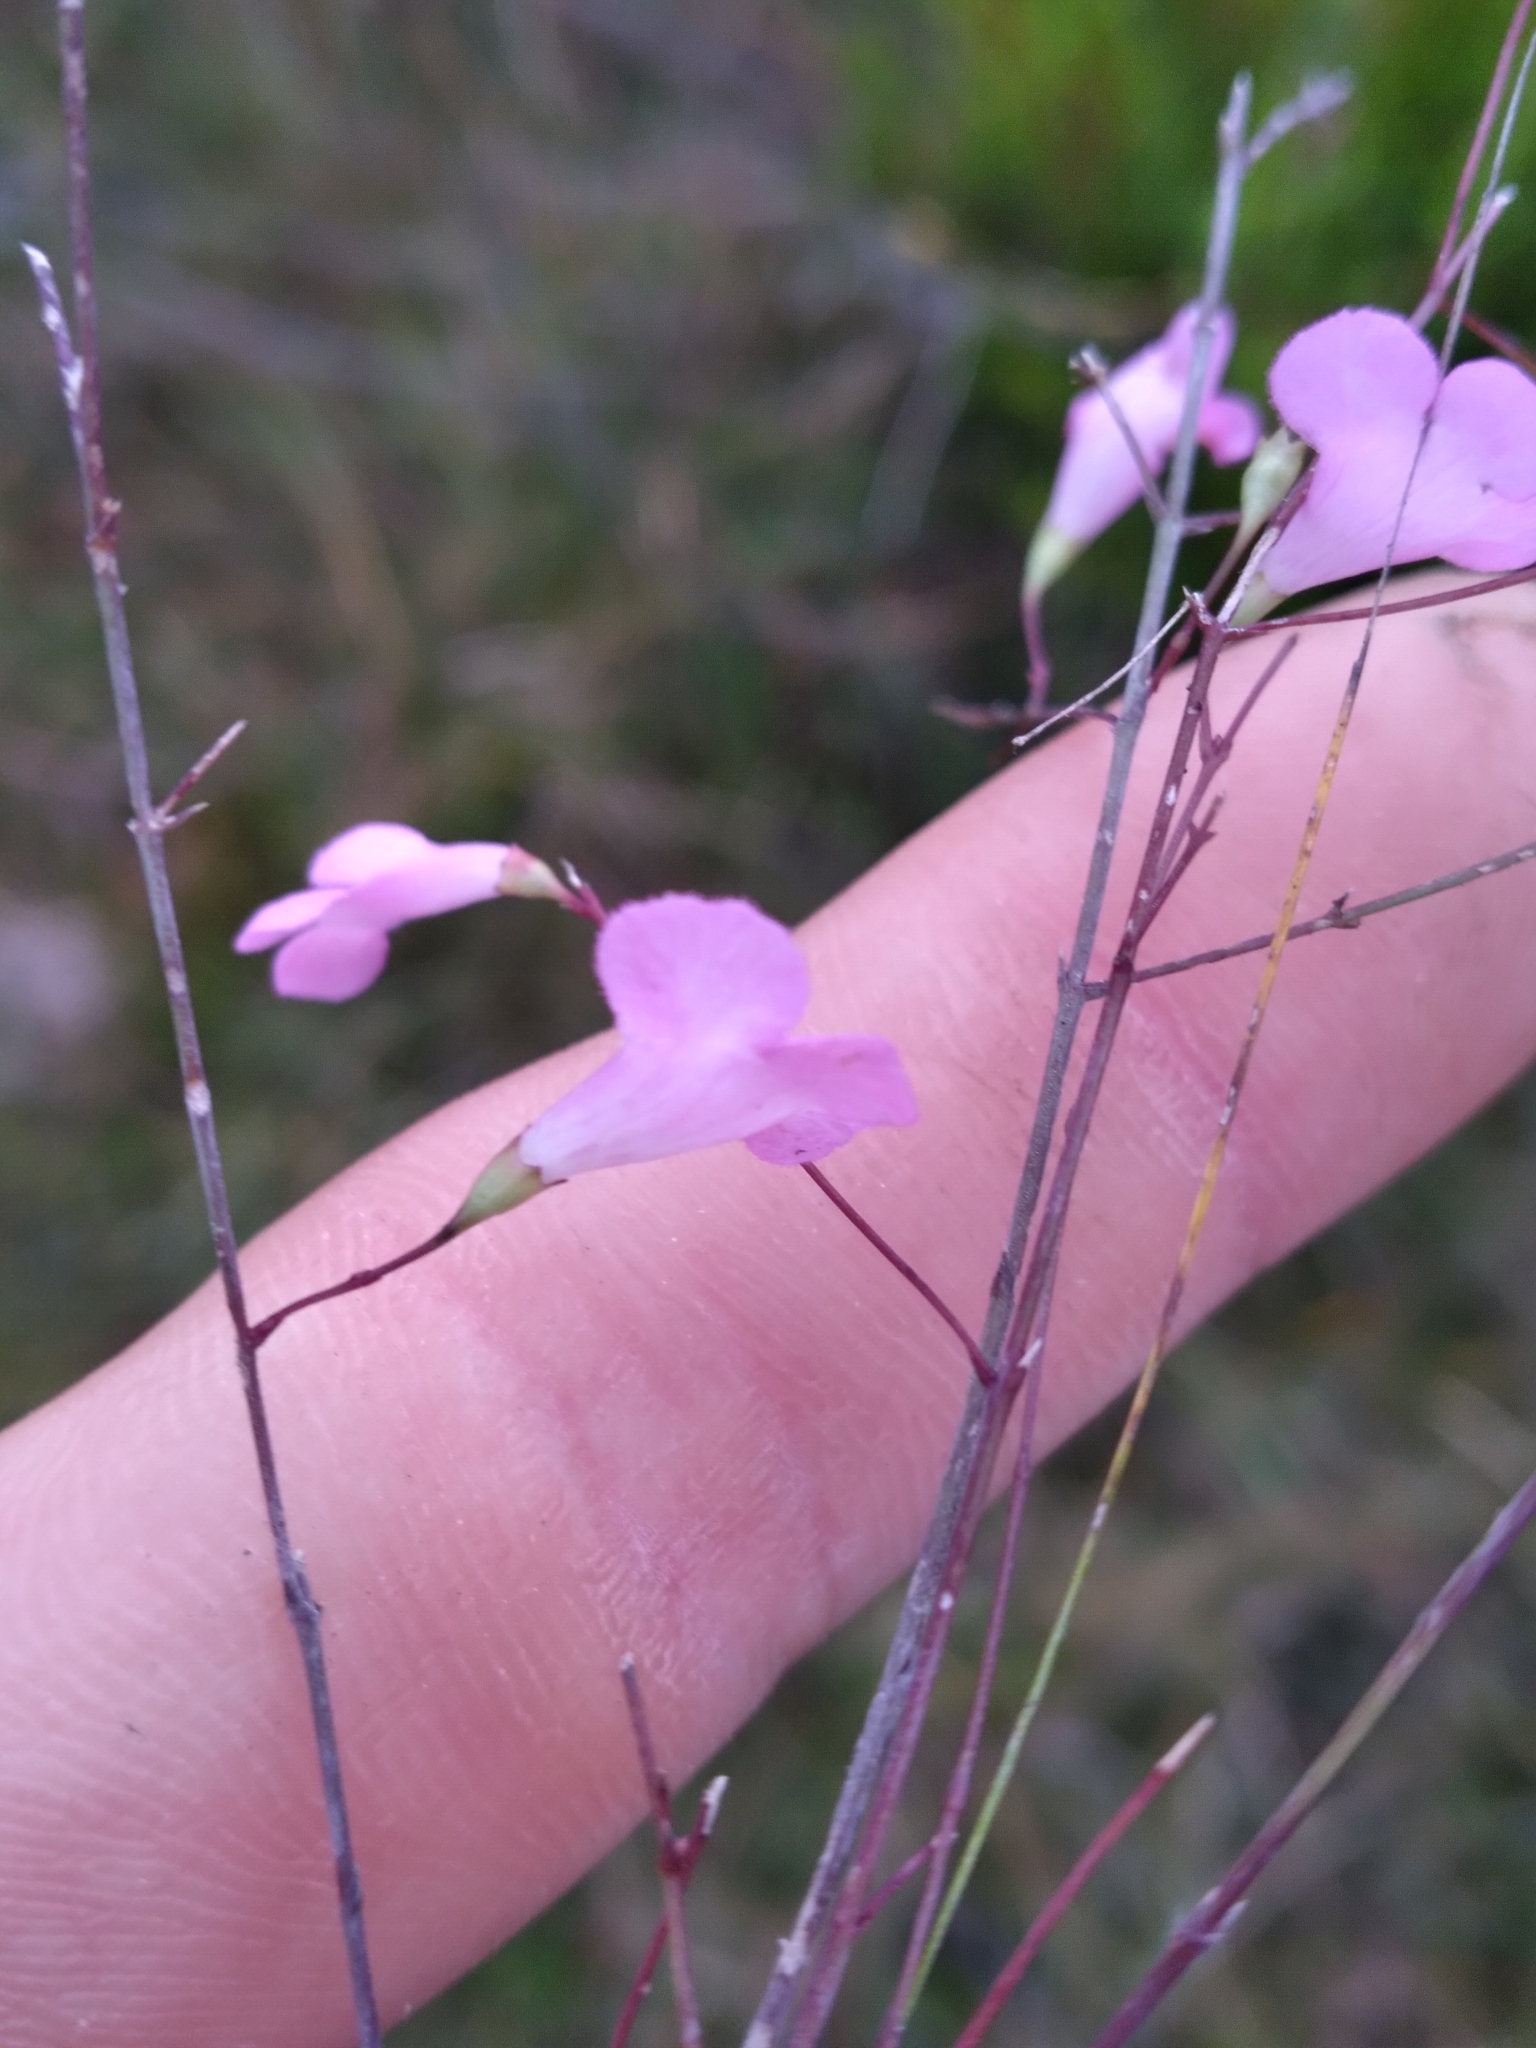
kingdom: Plantae
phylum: Tracheophyta
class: Magnoliopsida
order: Lamiales
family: Orobanchaceae
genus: Agalinis
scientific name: Agalinis filicaulis
